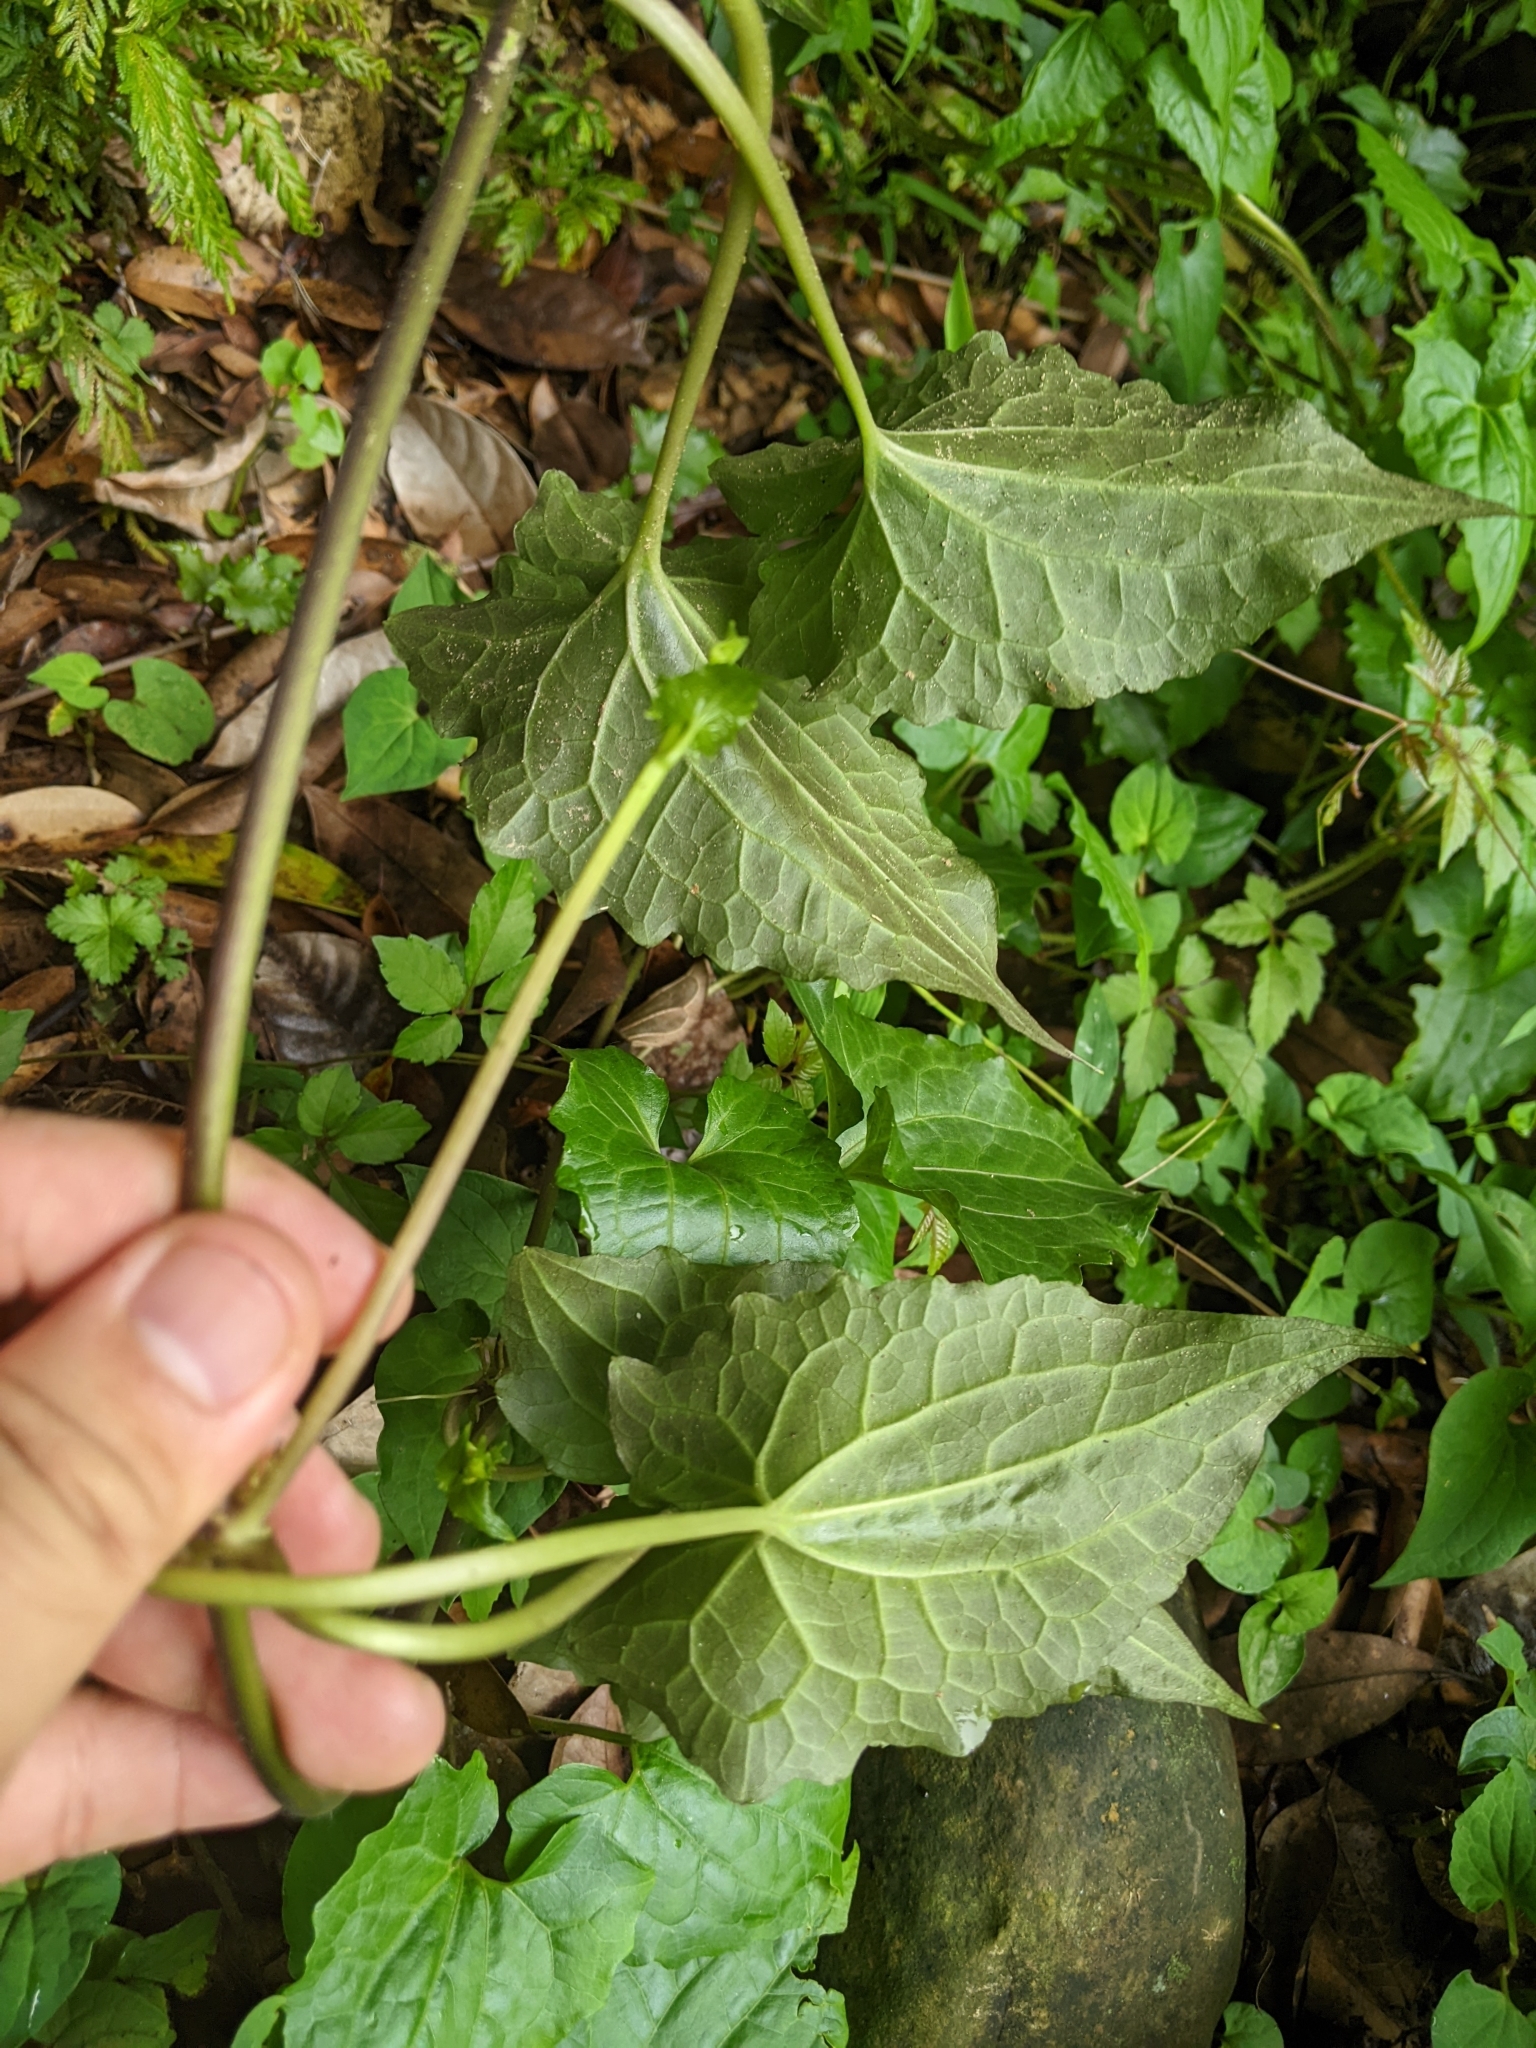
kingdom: Plantae
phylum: Tracheophyta
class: Magnoliopsida
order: Asterales
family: Asteraceae
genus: Mikania
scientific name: Mikania micrantha
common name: Mile-a-minute
